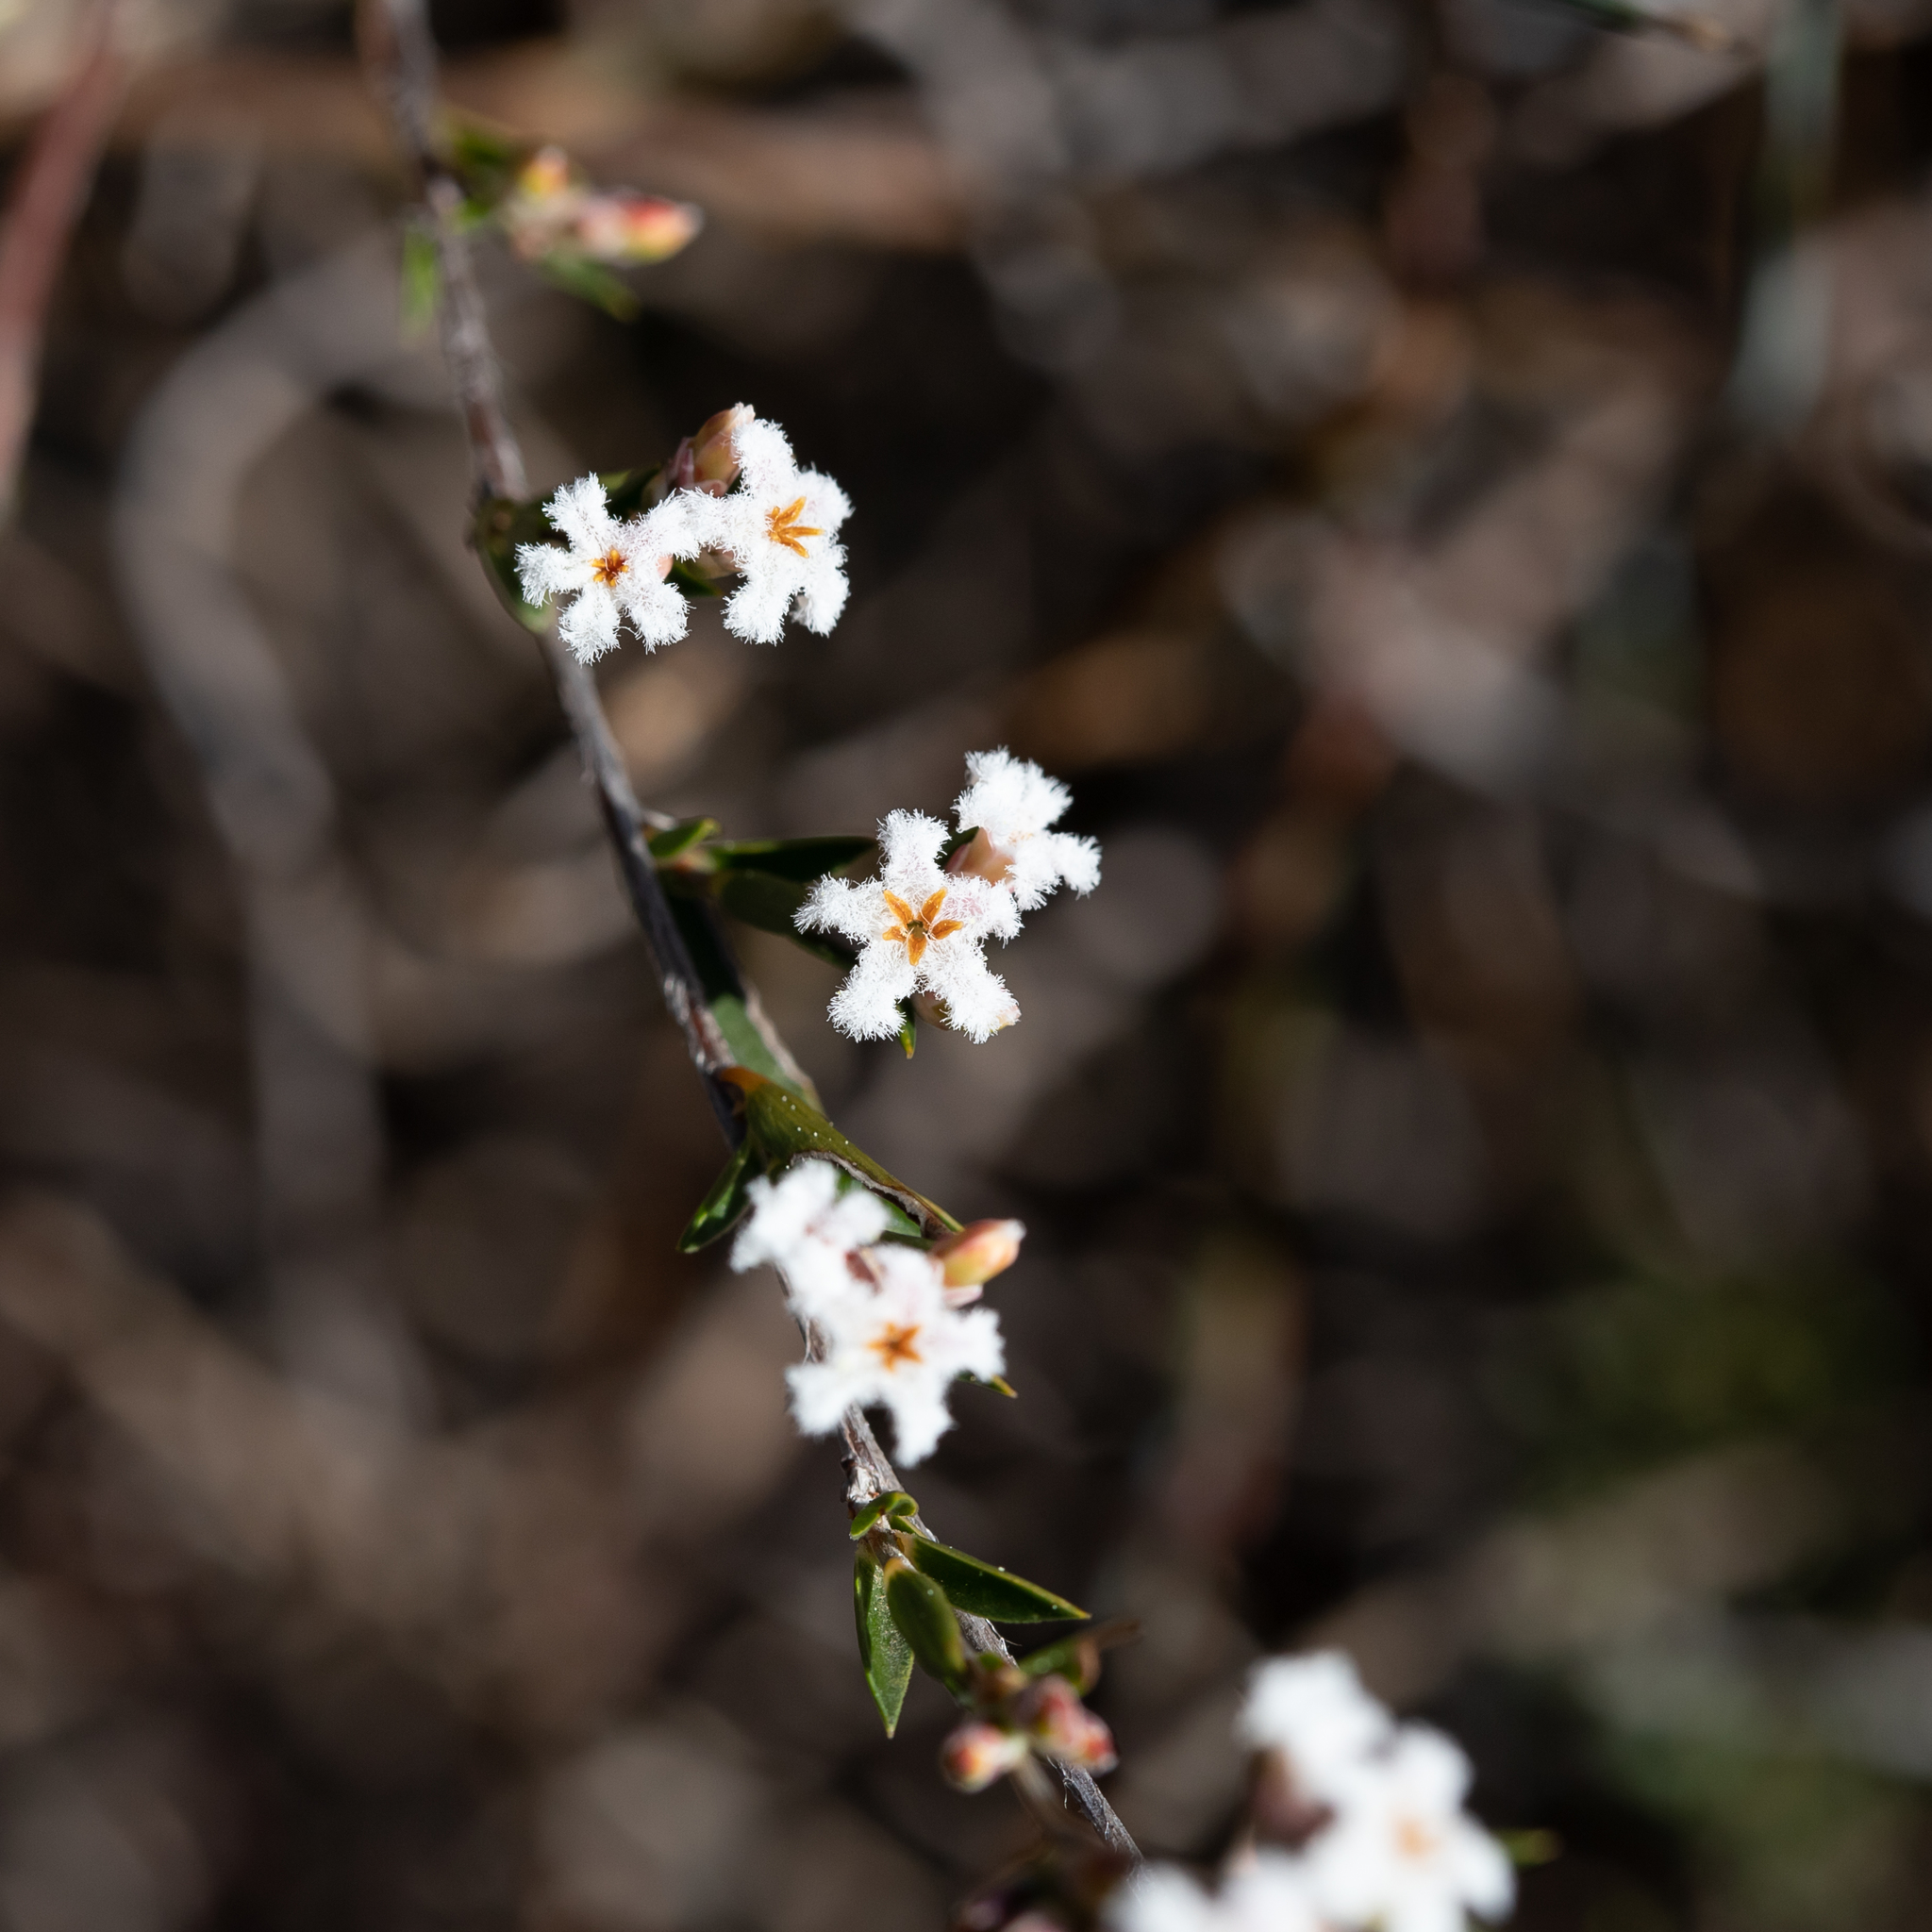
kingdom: Plantae
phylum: Tracheophyta
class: Magnoliopsida
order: Ericales
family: Ericaceae
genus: Leucopogon
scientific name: Leucopogon virgatus
